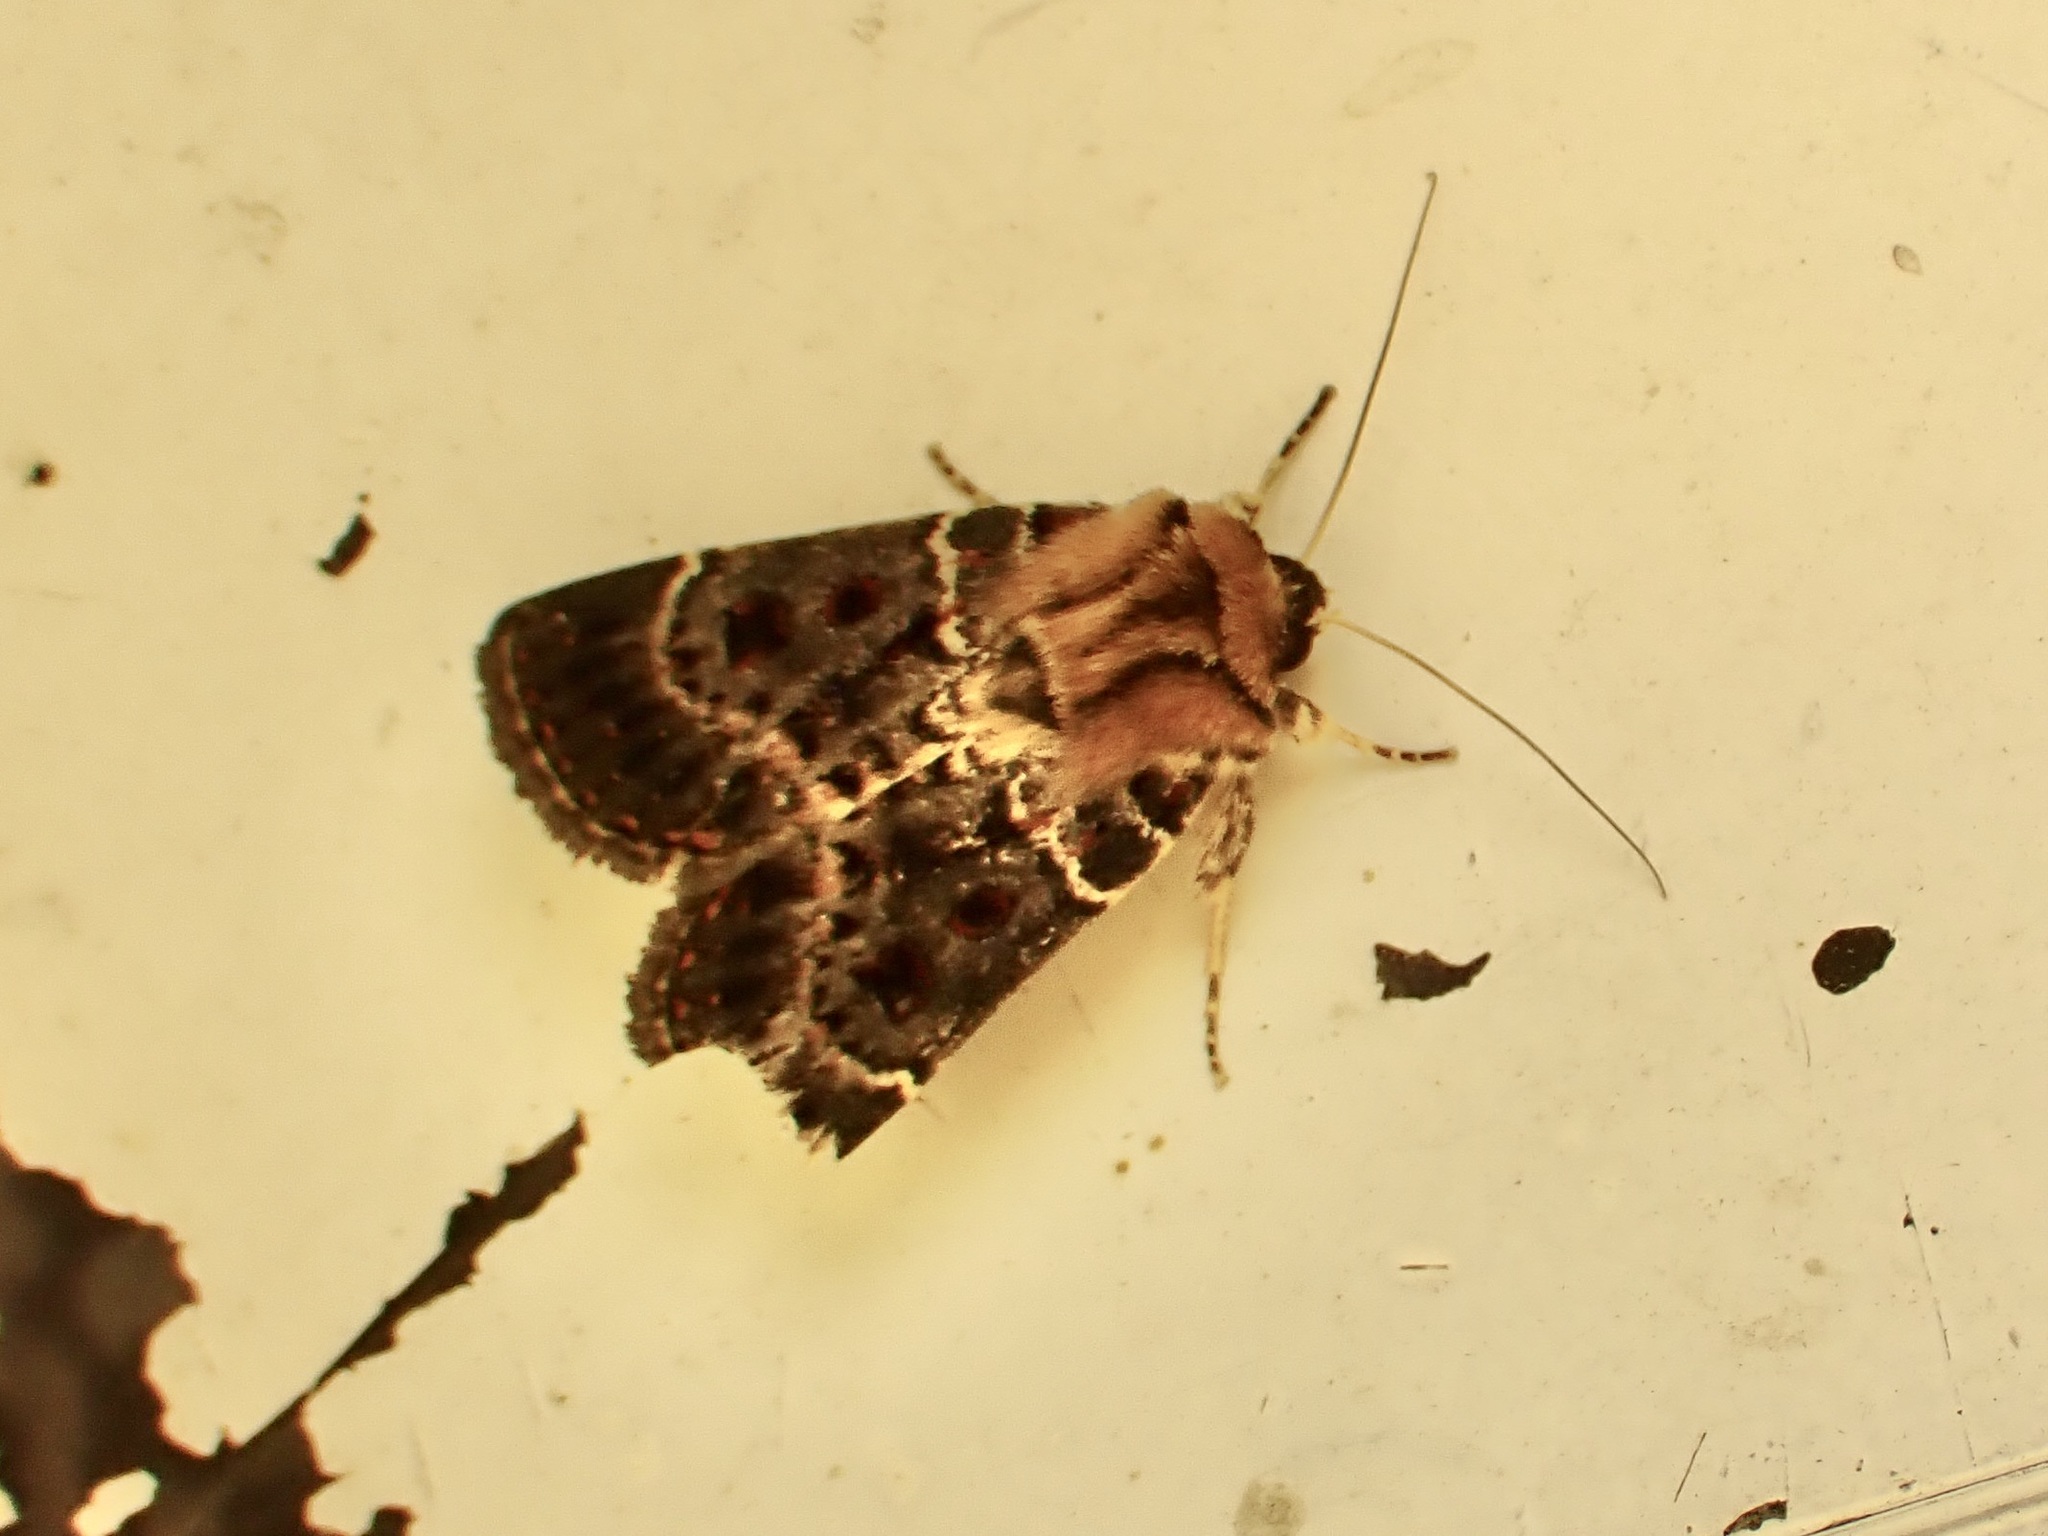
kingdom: Animalia
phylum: Arthropoda
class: Insecta
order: Lepidoptera
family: Noctuidae
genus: Proteuxoa
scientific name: Proteuxoa sanguinipuncta
